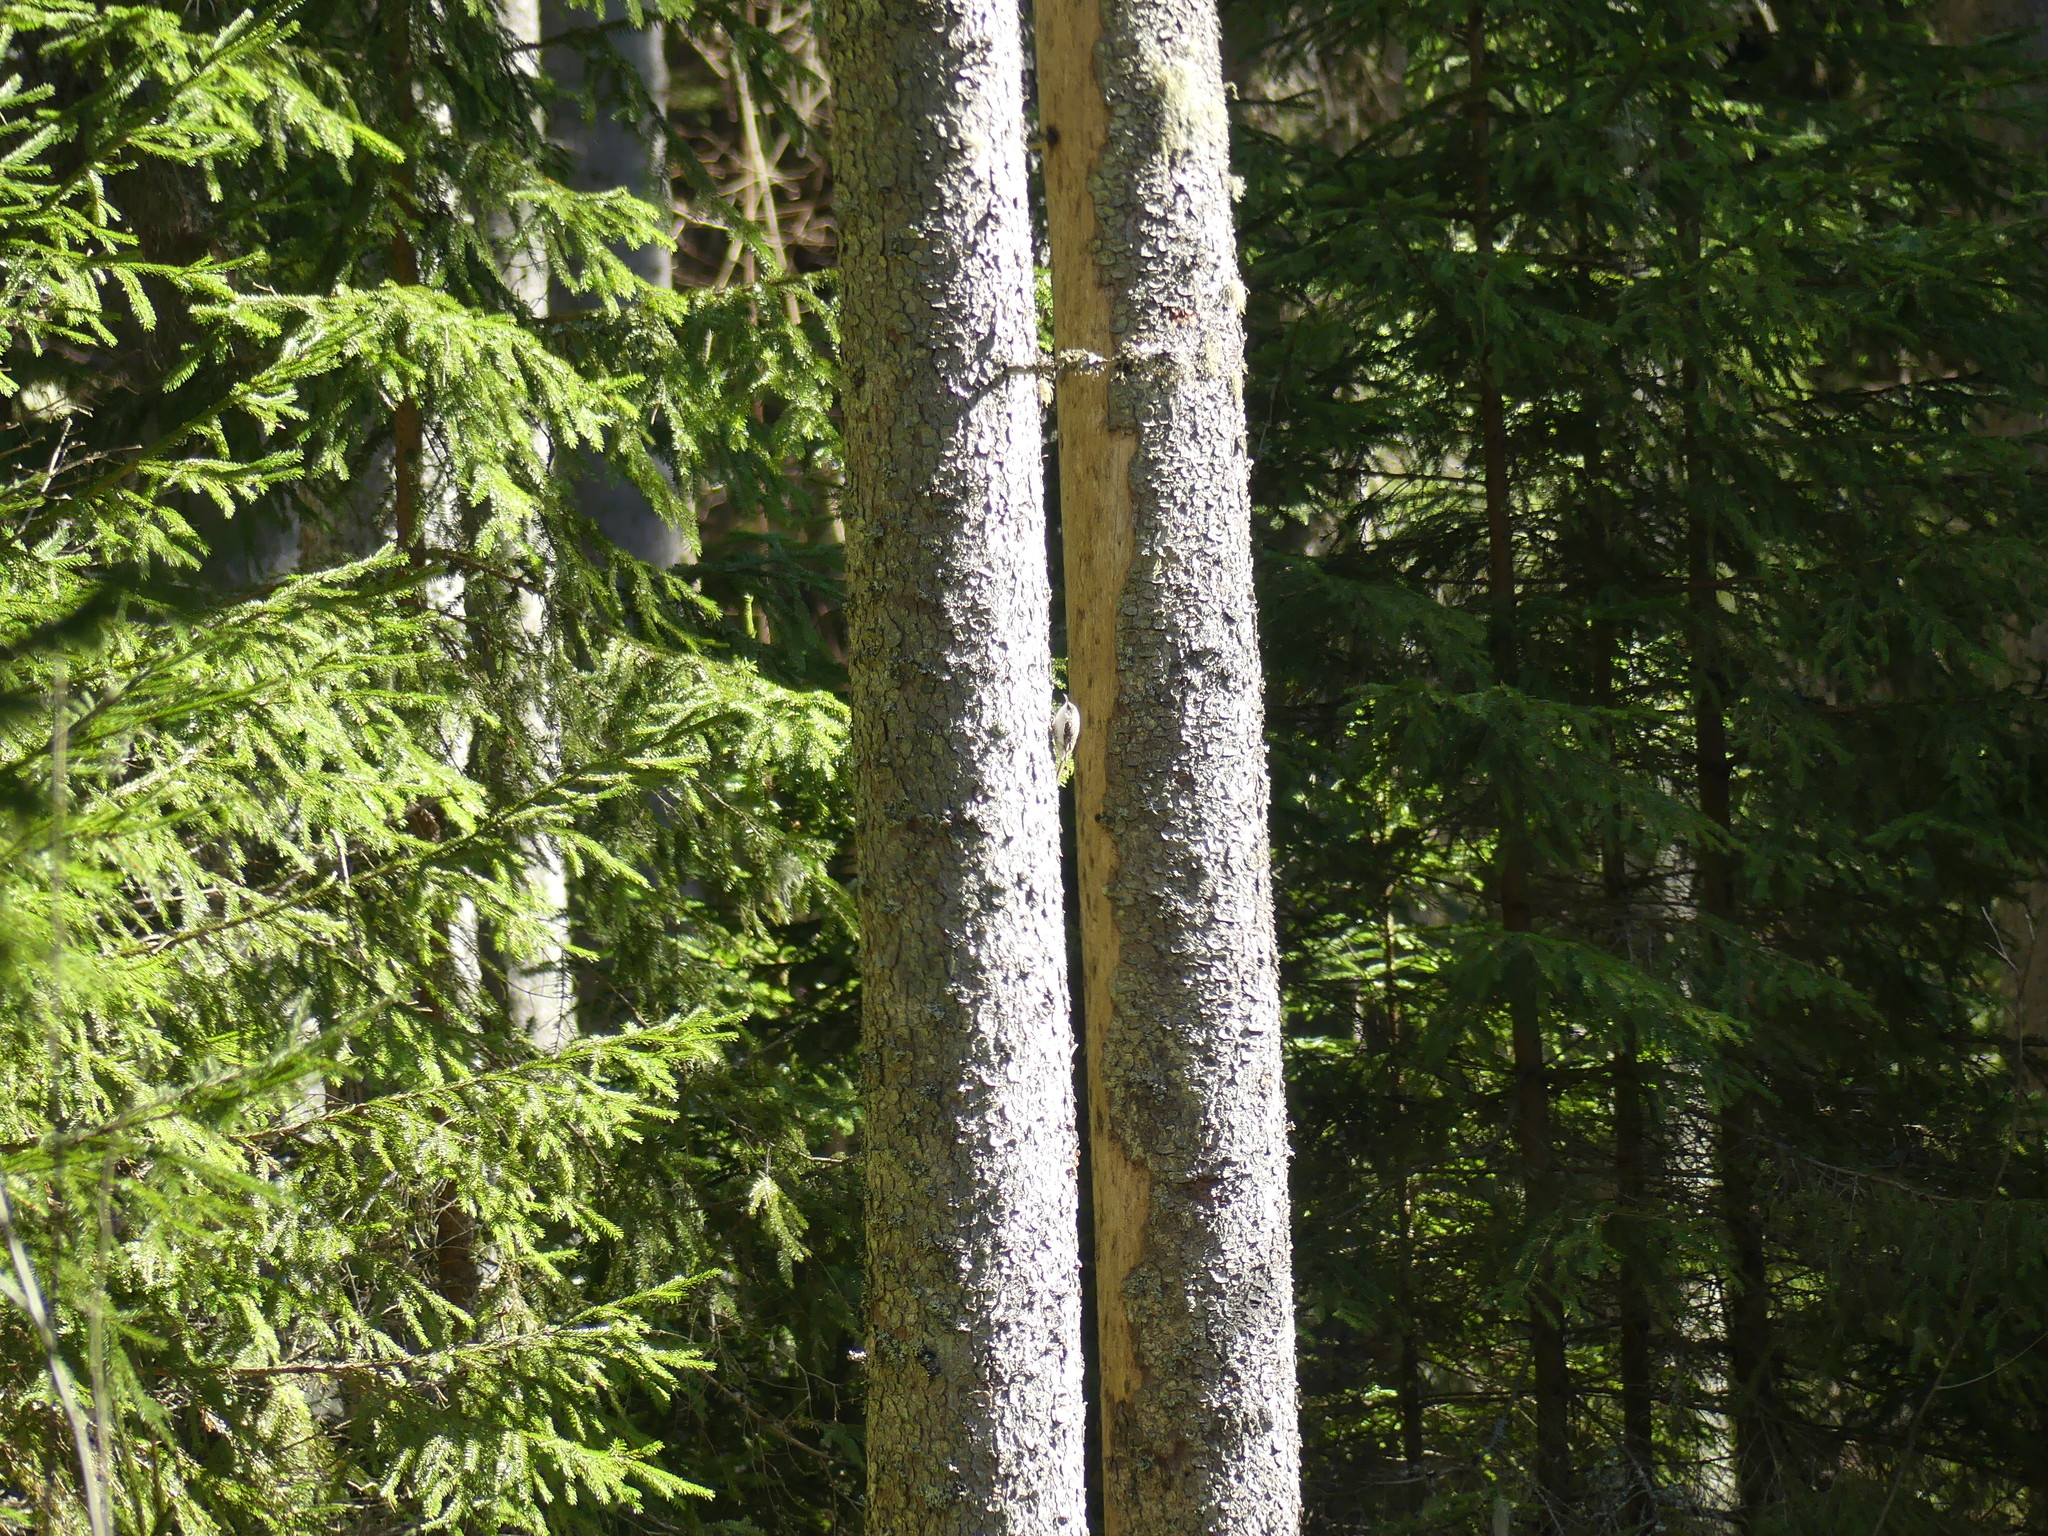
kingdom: Animalia
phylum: Chordata
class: Aves
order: Passeriformes
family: Certhiidae
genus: Certhia
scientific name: Certhia familiaris
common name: Eurasian treecreeper
